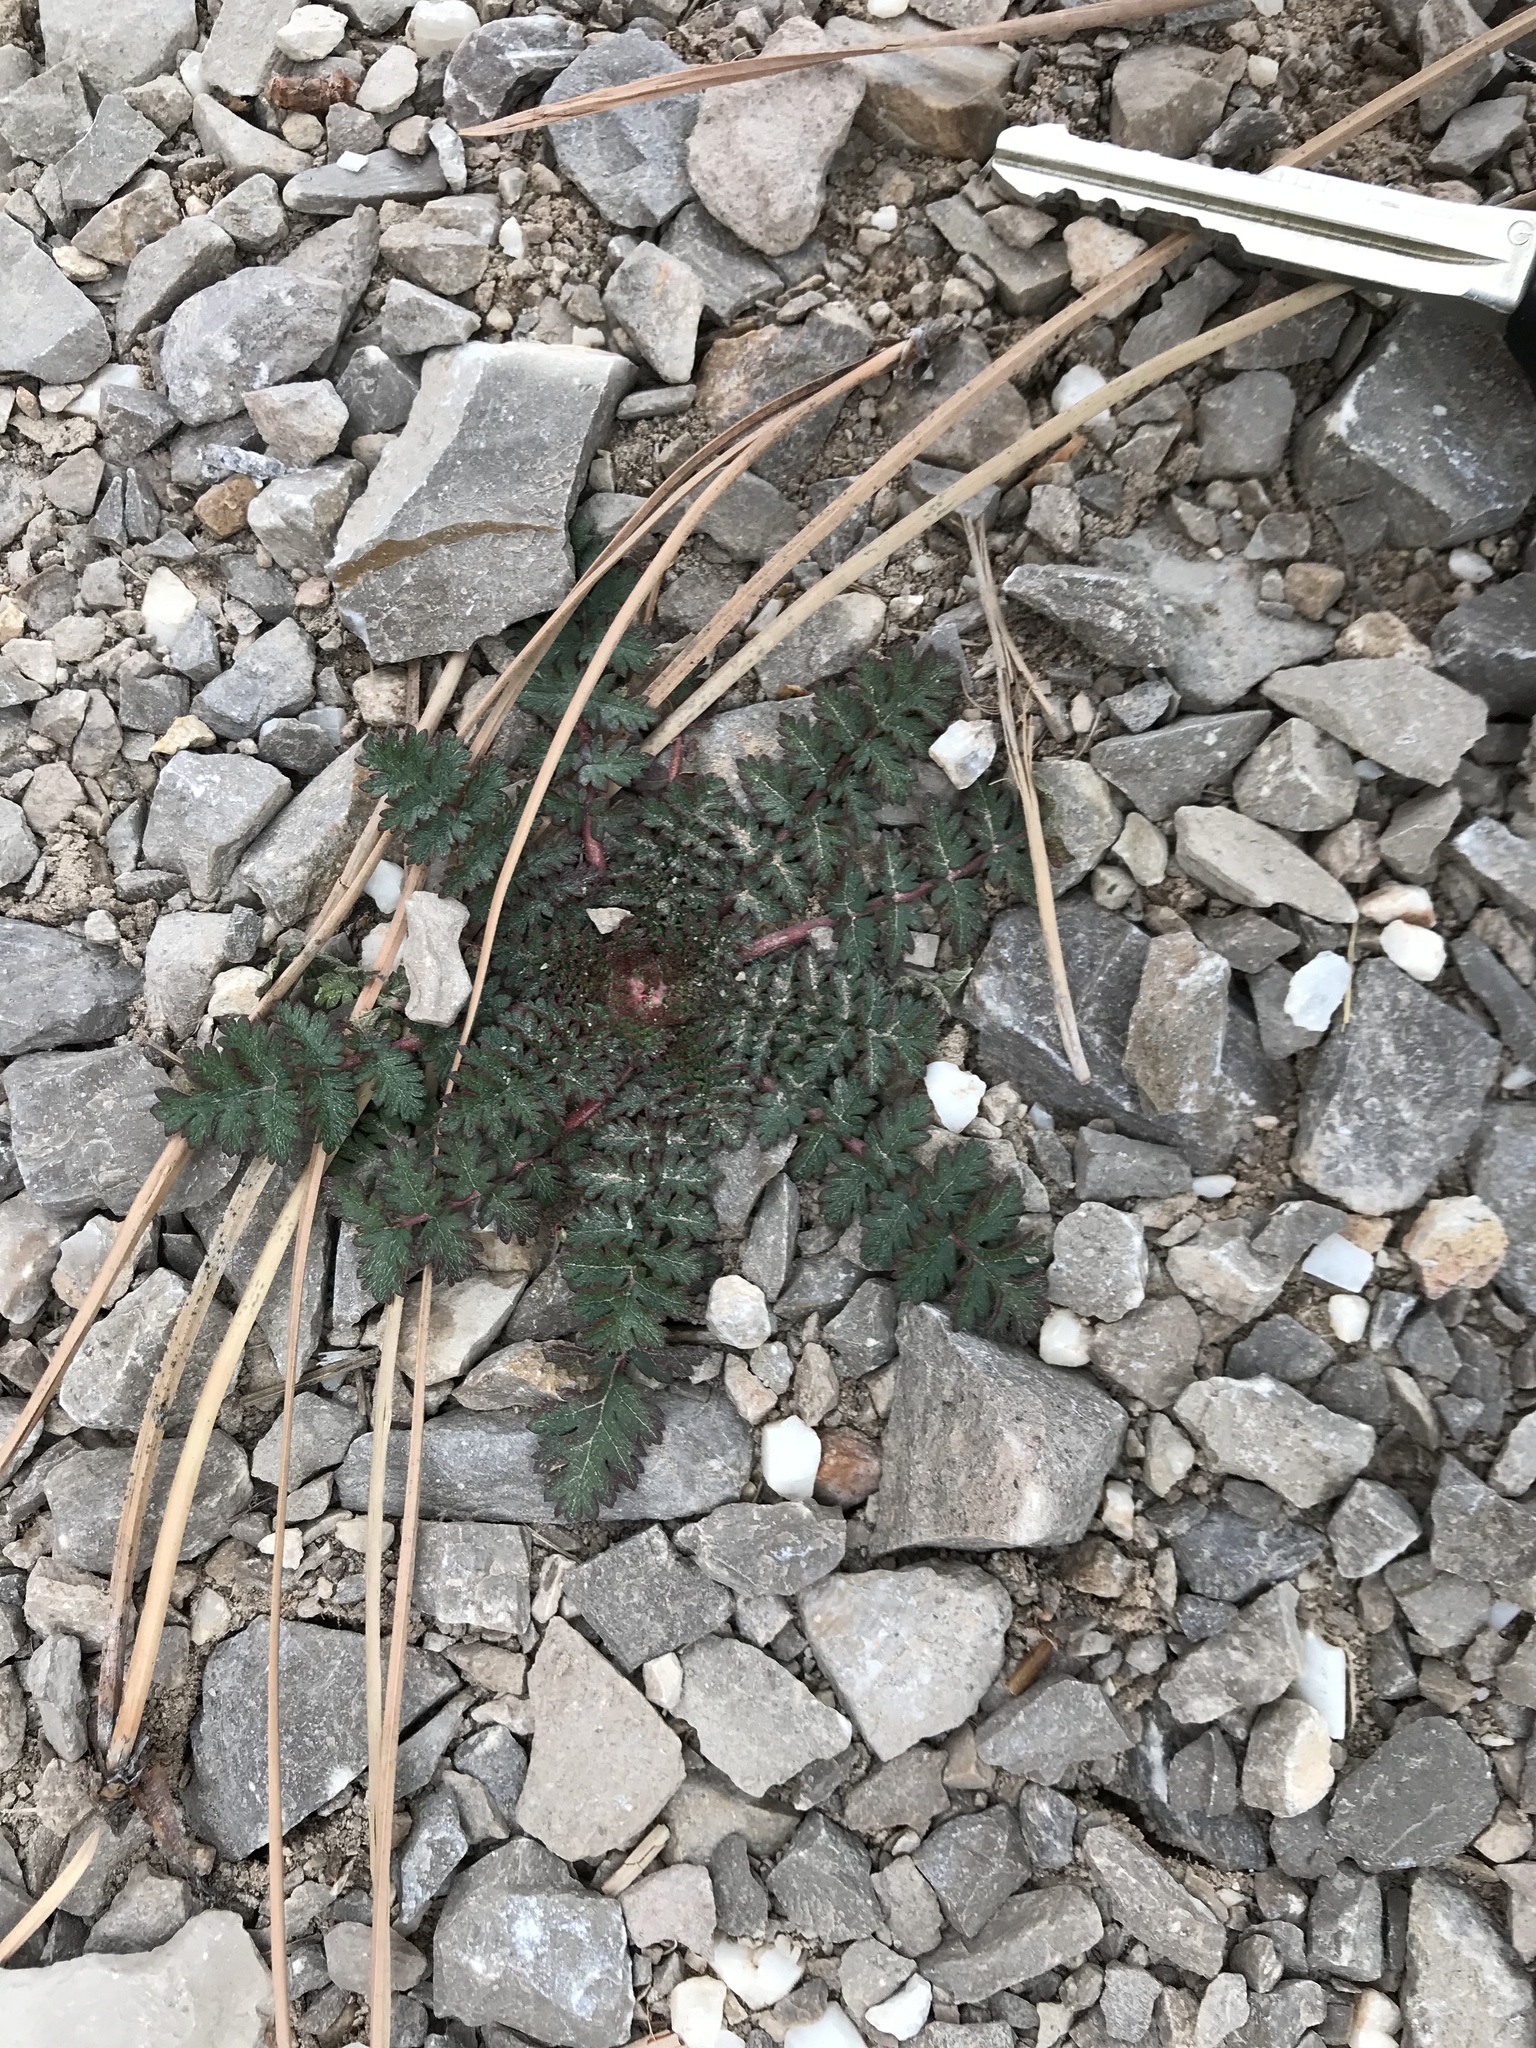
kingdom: Plantae
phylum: Tracheophyta
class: Magnoliopsida
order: Geraniales
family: Geraniaceae
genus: Erodium
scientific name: Erodium cicutarium
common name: Common stork's-bill
